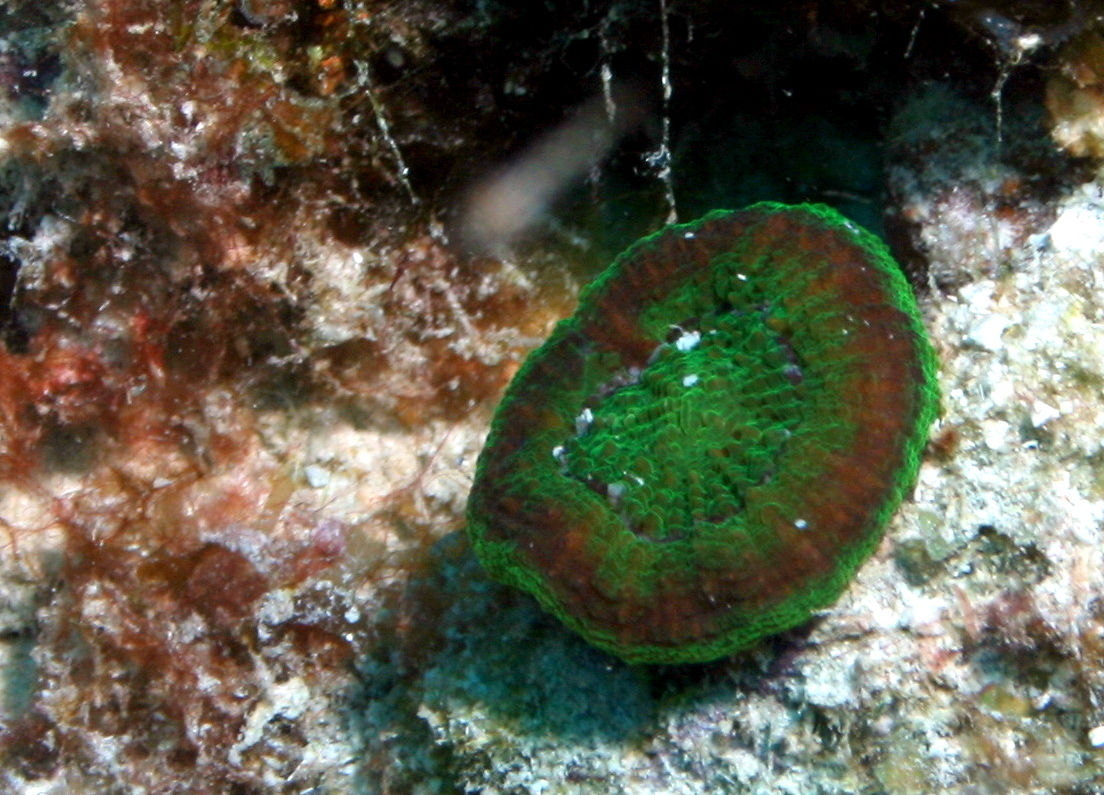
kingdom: Animalia
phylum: Cnidaria
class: Anthozoa
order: Scleractinia
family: Faviidae
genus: Scolymia
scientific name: Scolymia cubensis
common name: Artichoke coral
